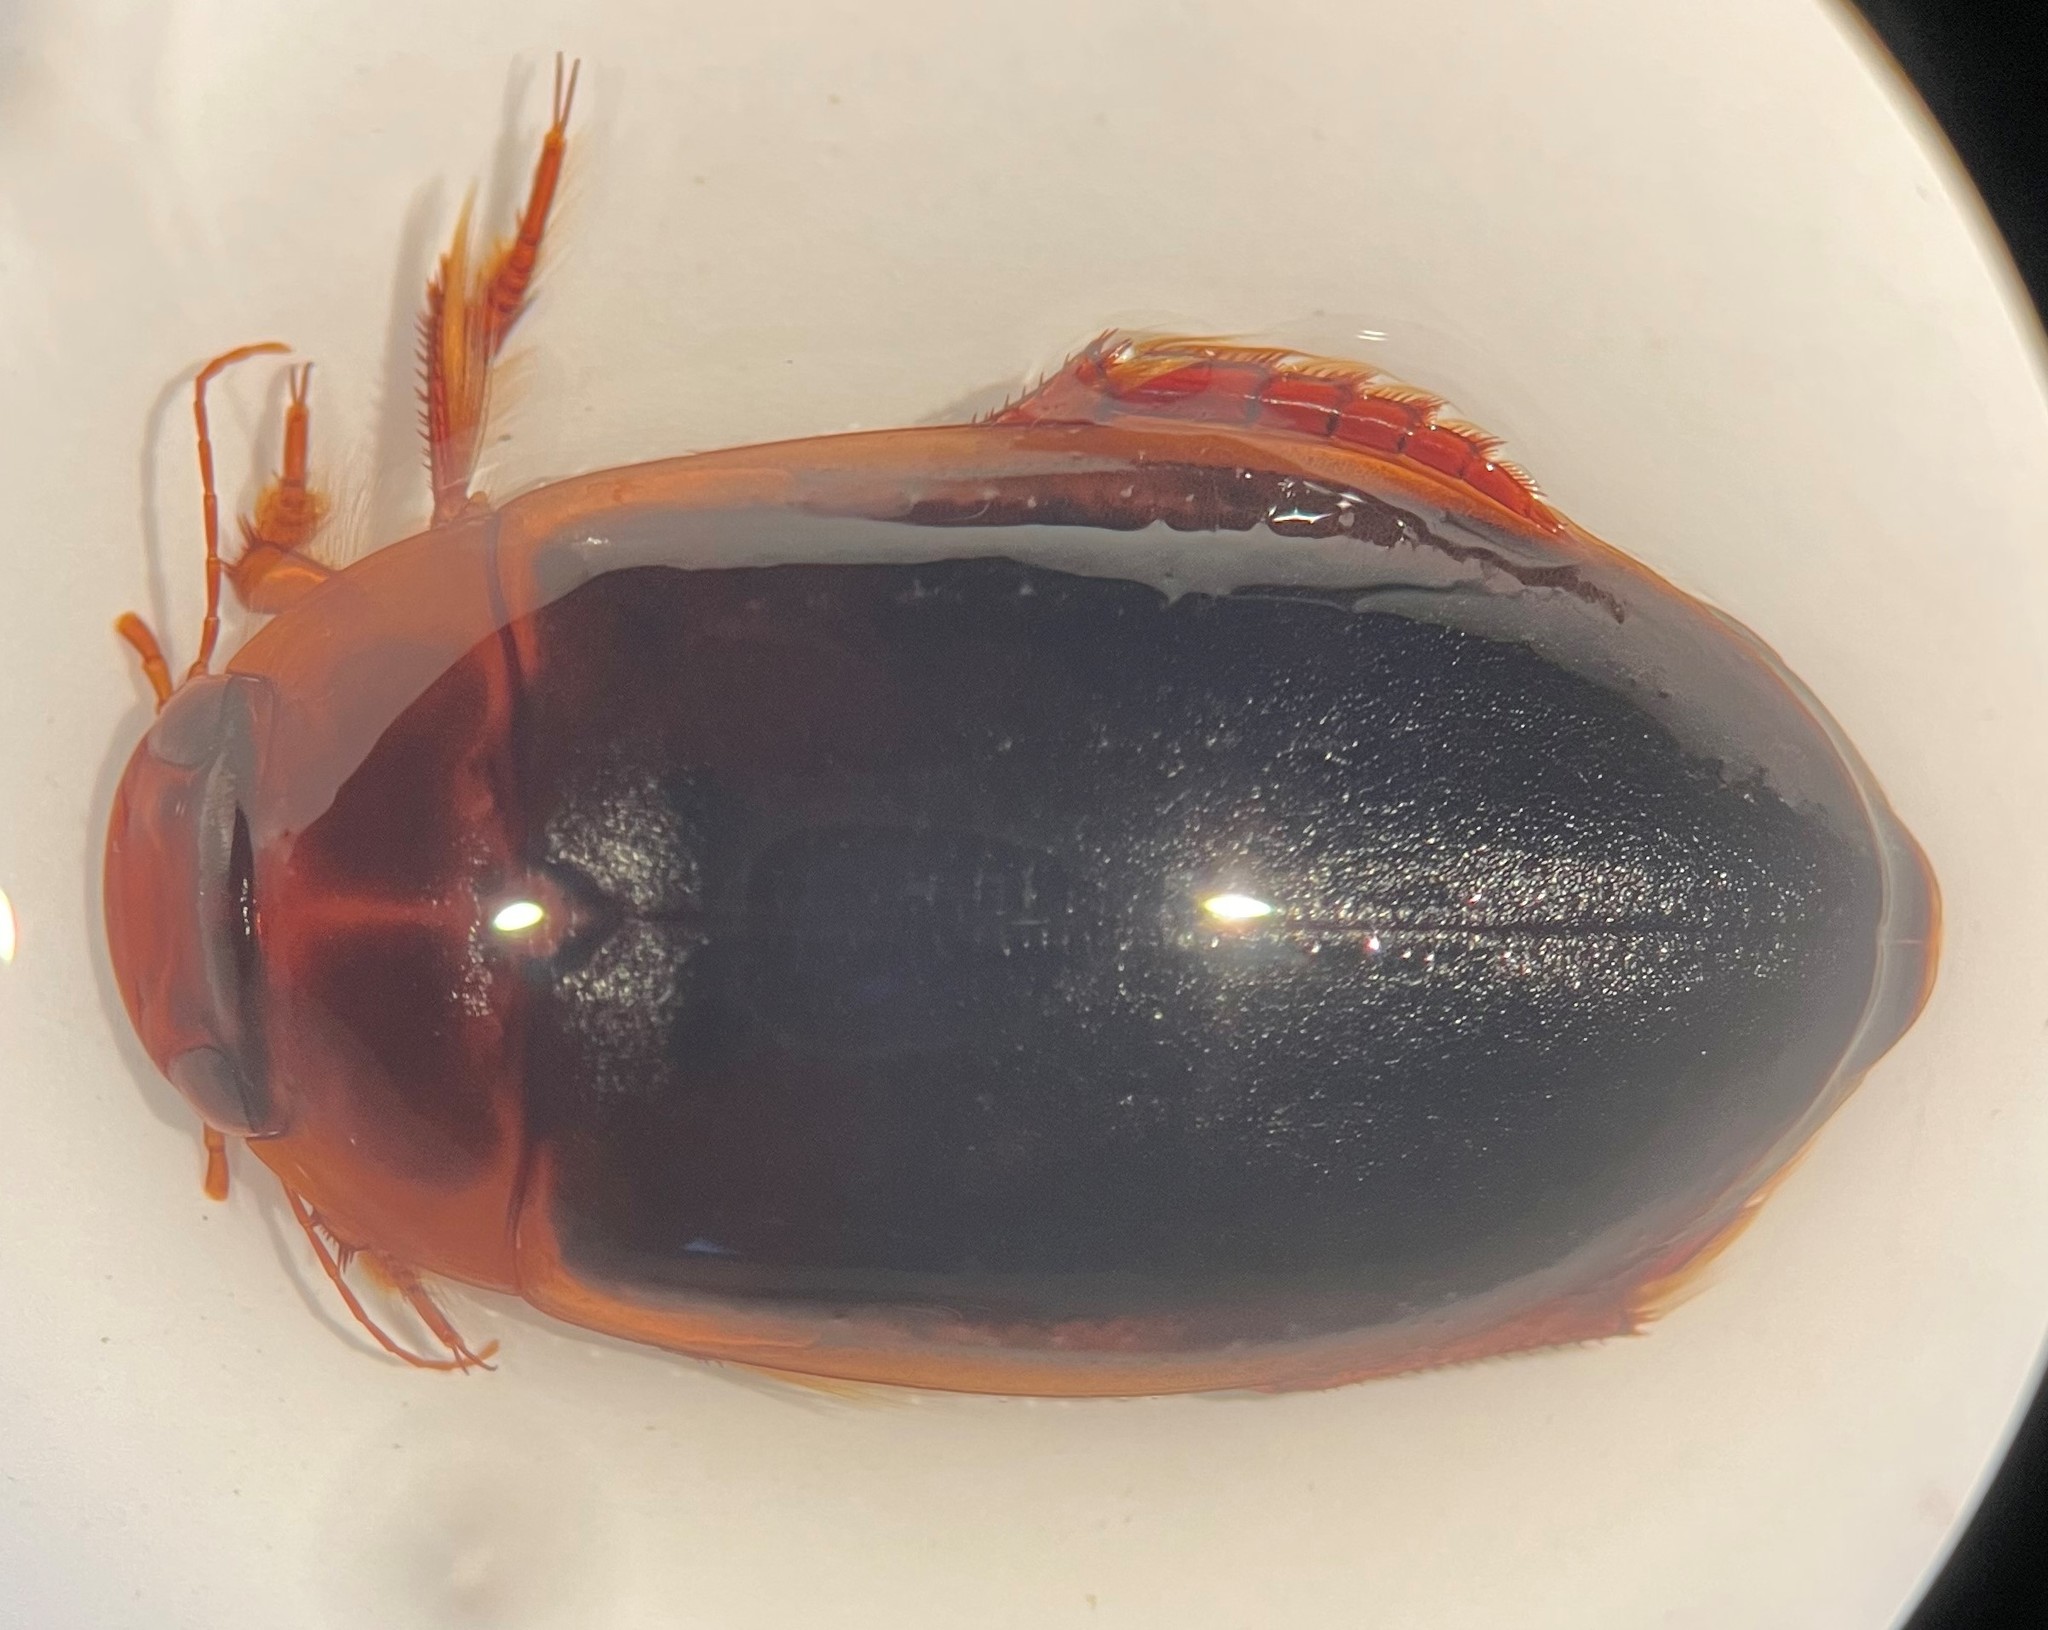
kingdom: Animalia
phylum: Arthropoda
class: Insecta
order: Coleoptera
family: Dytiscidae
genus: Hoperius
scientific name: Hoperius planatus
